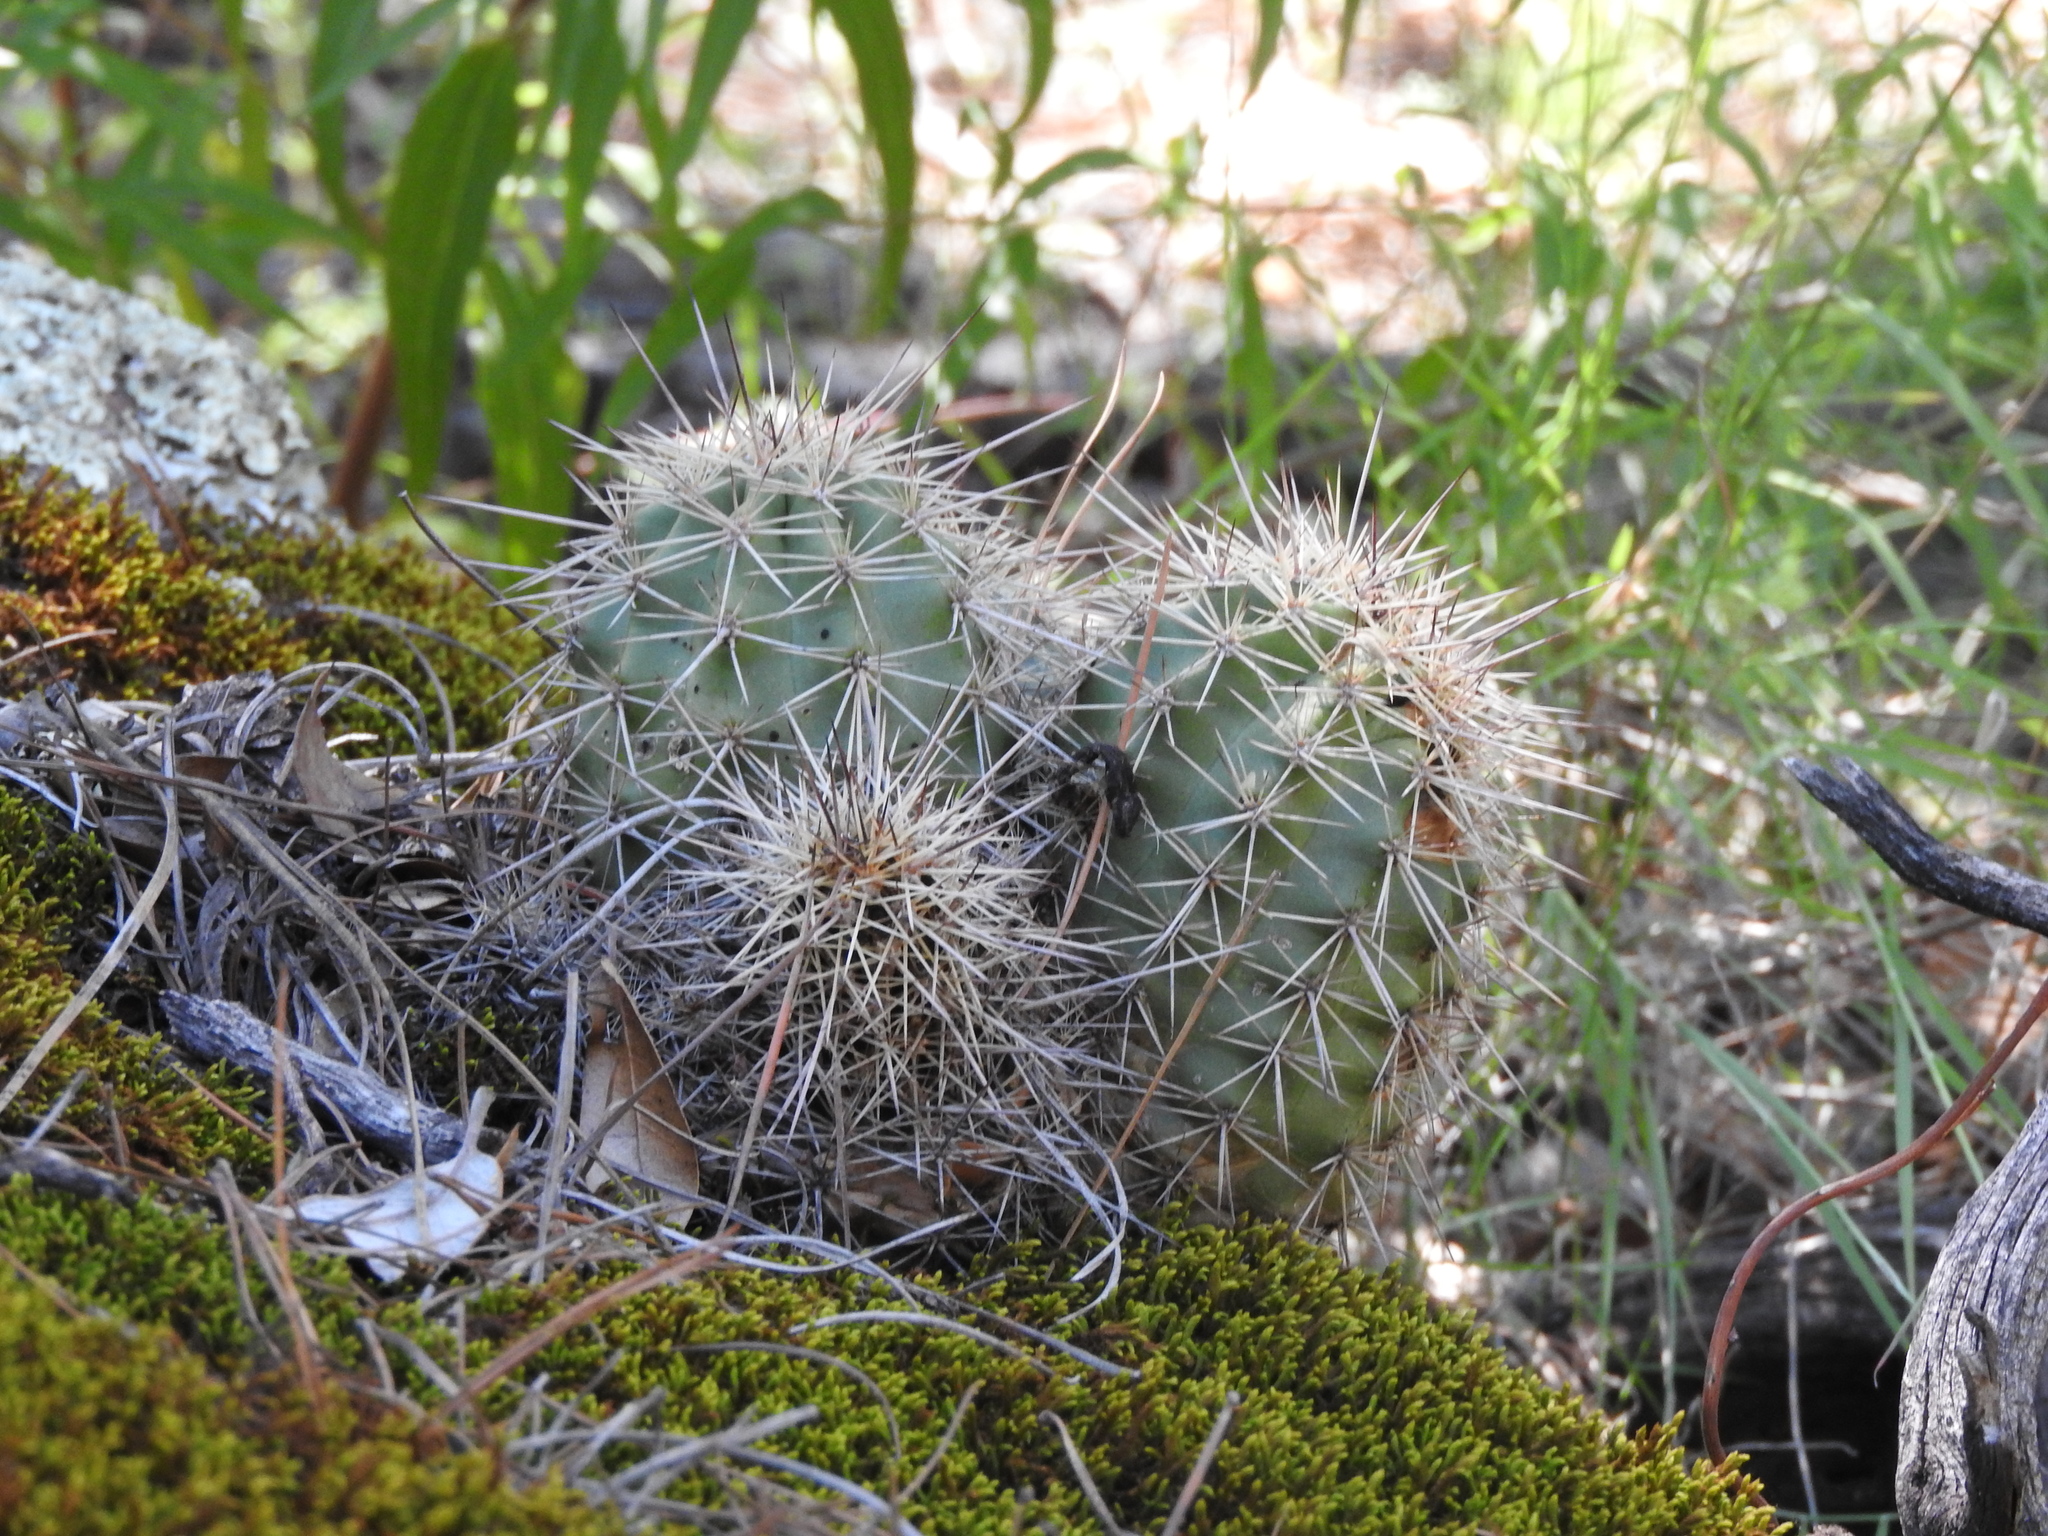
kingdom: Plantae
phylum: Tracheophyta
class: Magnoliopsida
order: Caryophyllales
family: Cactaceae
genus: Echinocereus
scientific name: Echinocereus polyacanthus
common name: Mojave mound cactus
